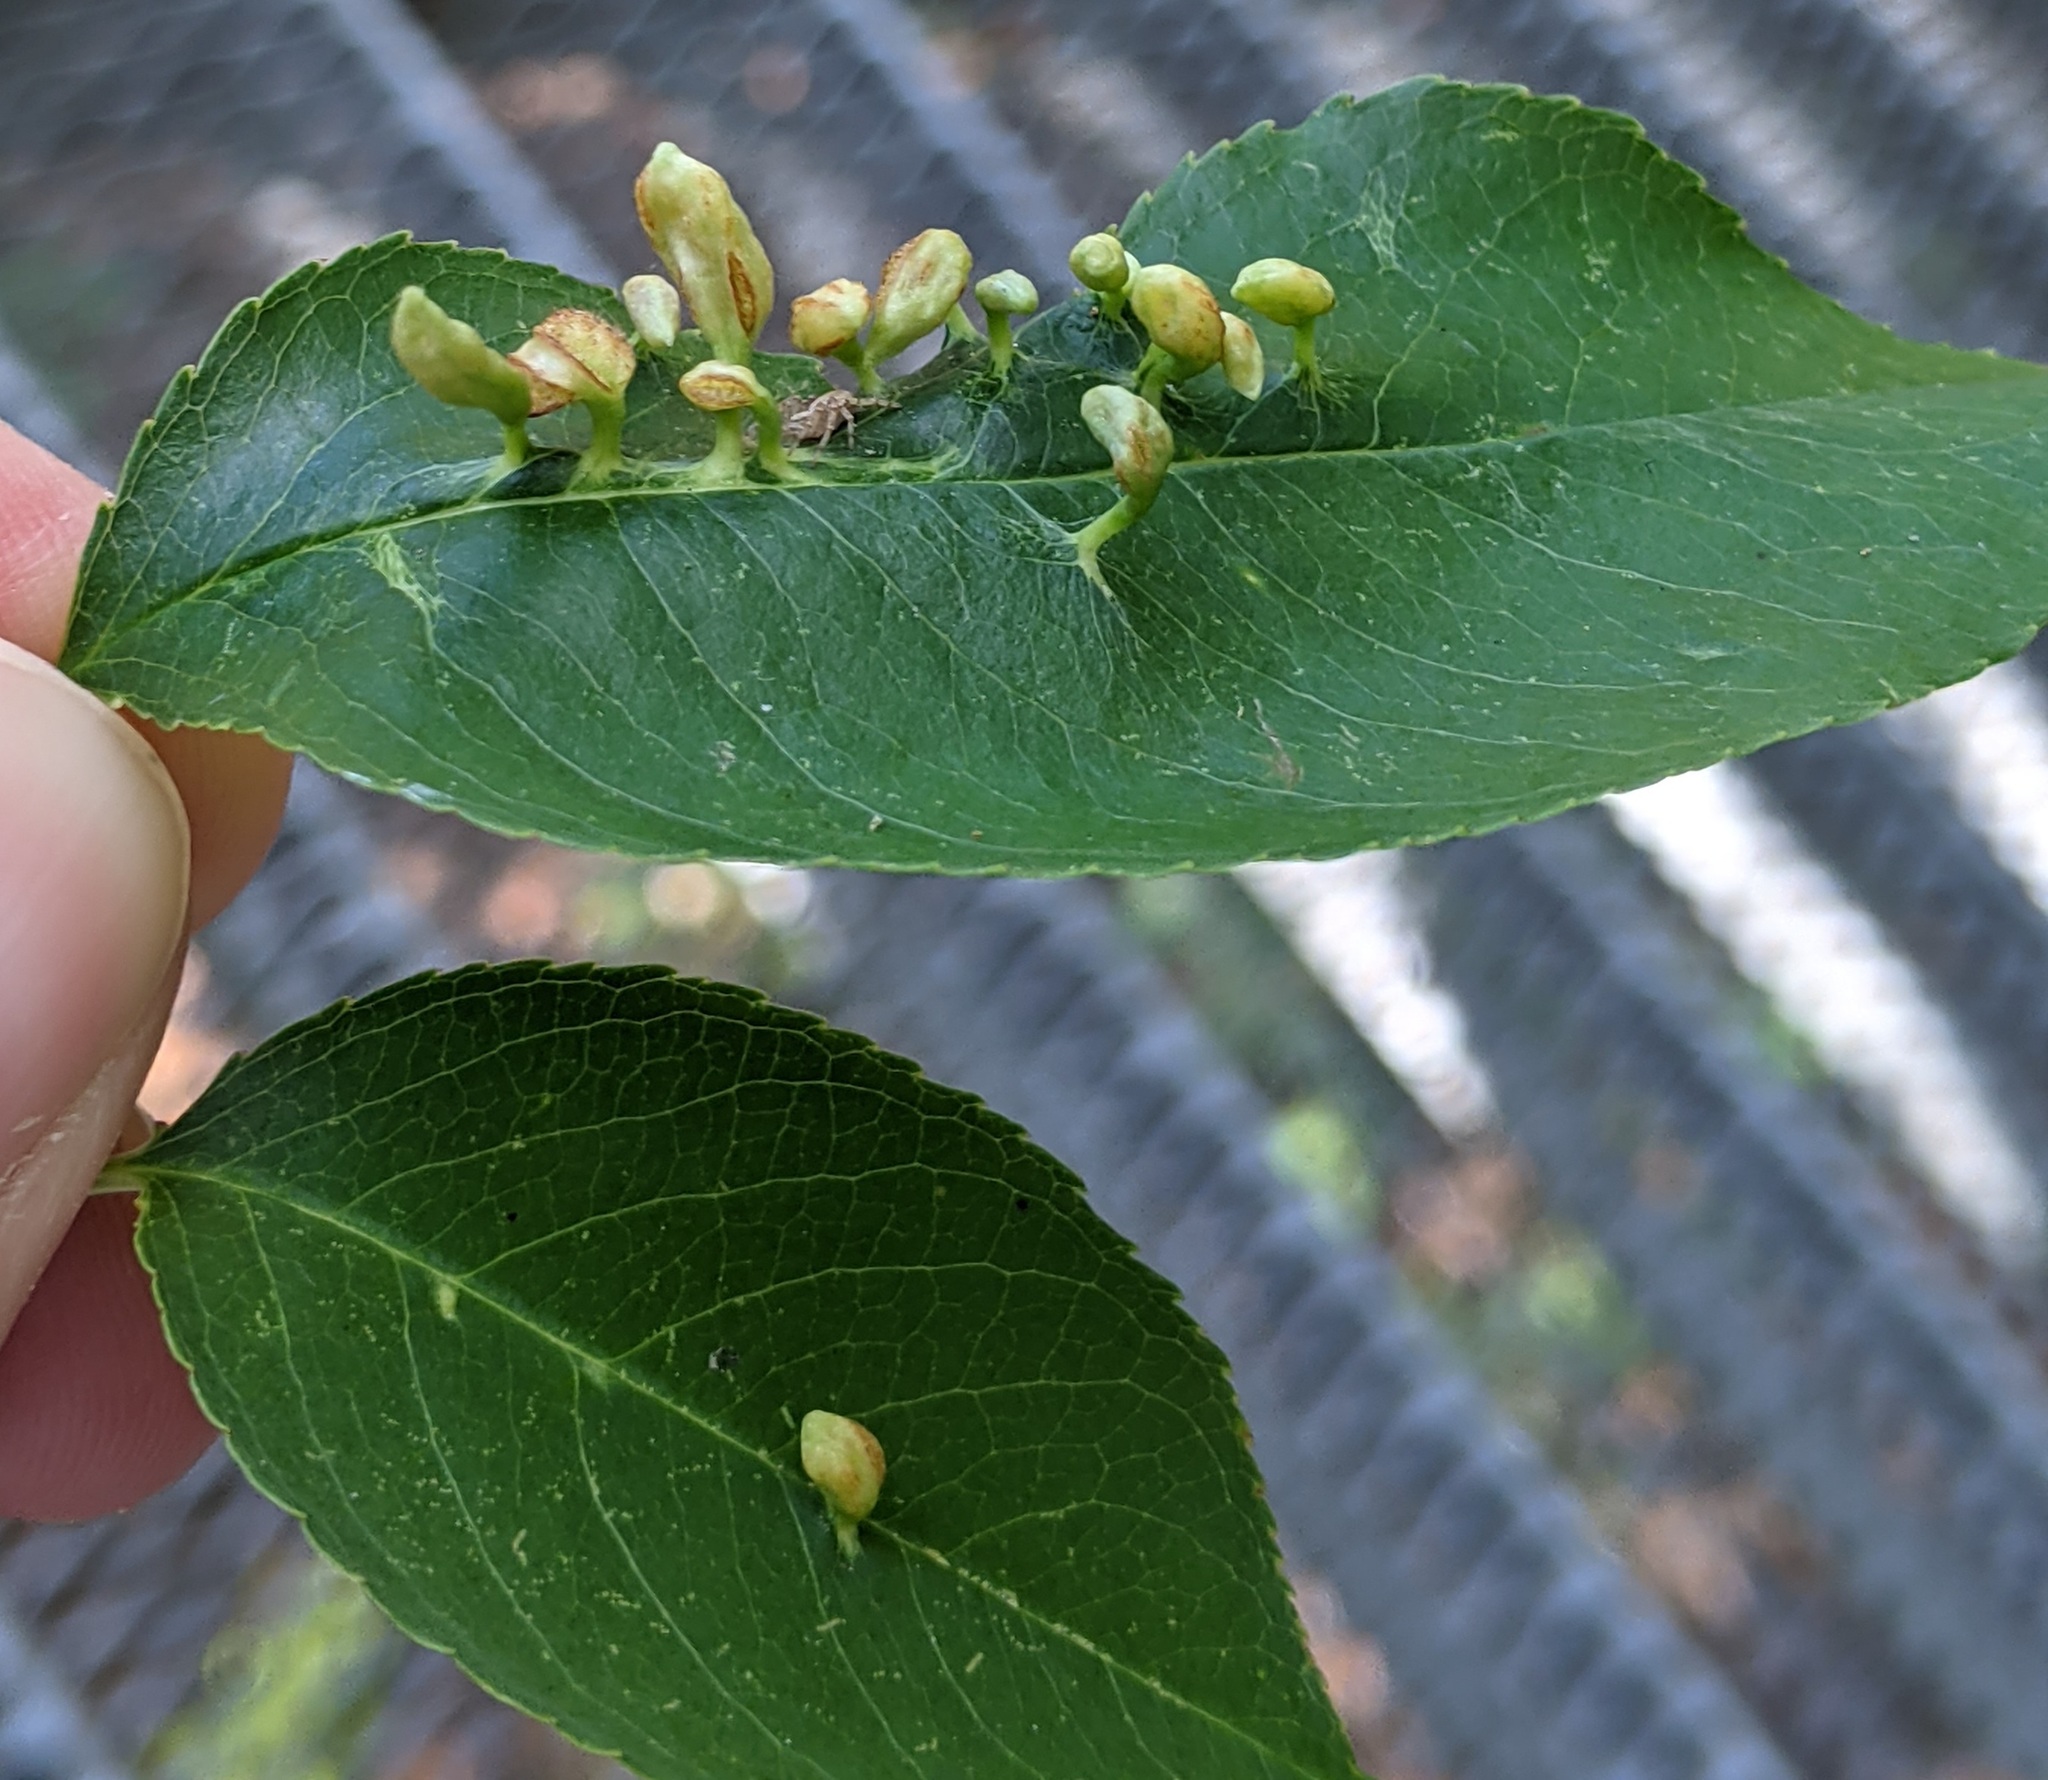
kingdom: Animalia
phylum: Arthropoda
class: Arachnida
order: Trombidiformes
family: Eriophyidae
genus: Eriophyes
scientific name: Eriophyes
